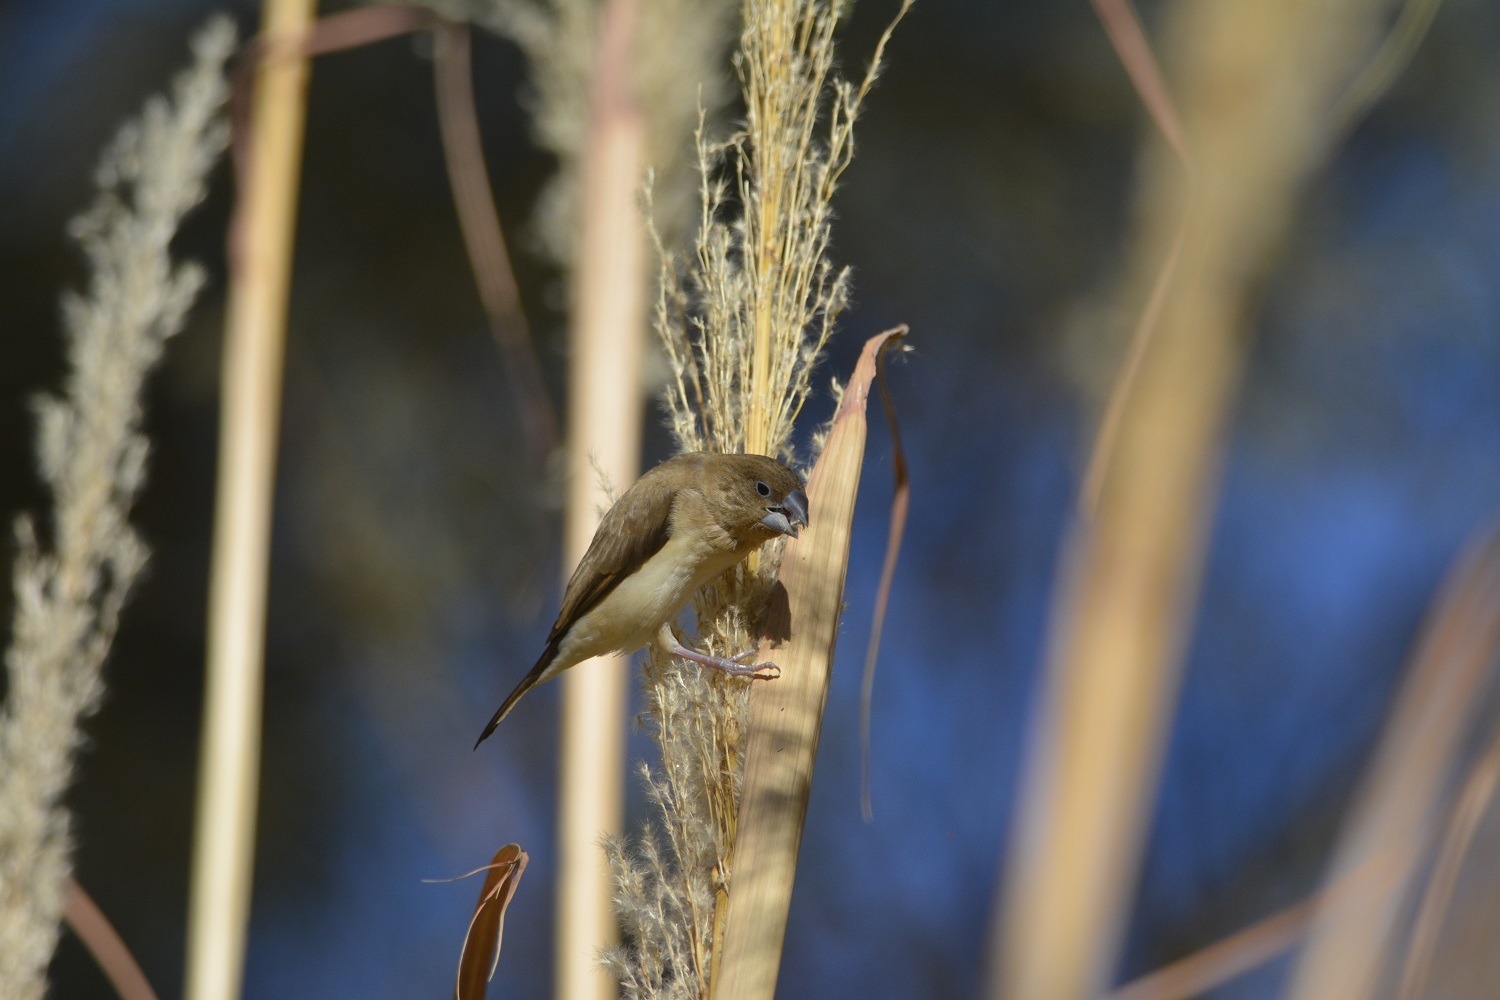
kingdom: Animalia
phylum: Chordata
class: Aves
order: Passeriformes
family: Estrildidae
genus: Euodice
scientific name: Euodice cantans
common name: African silverbill
